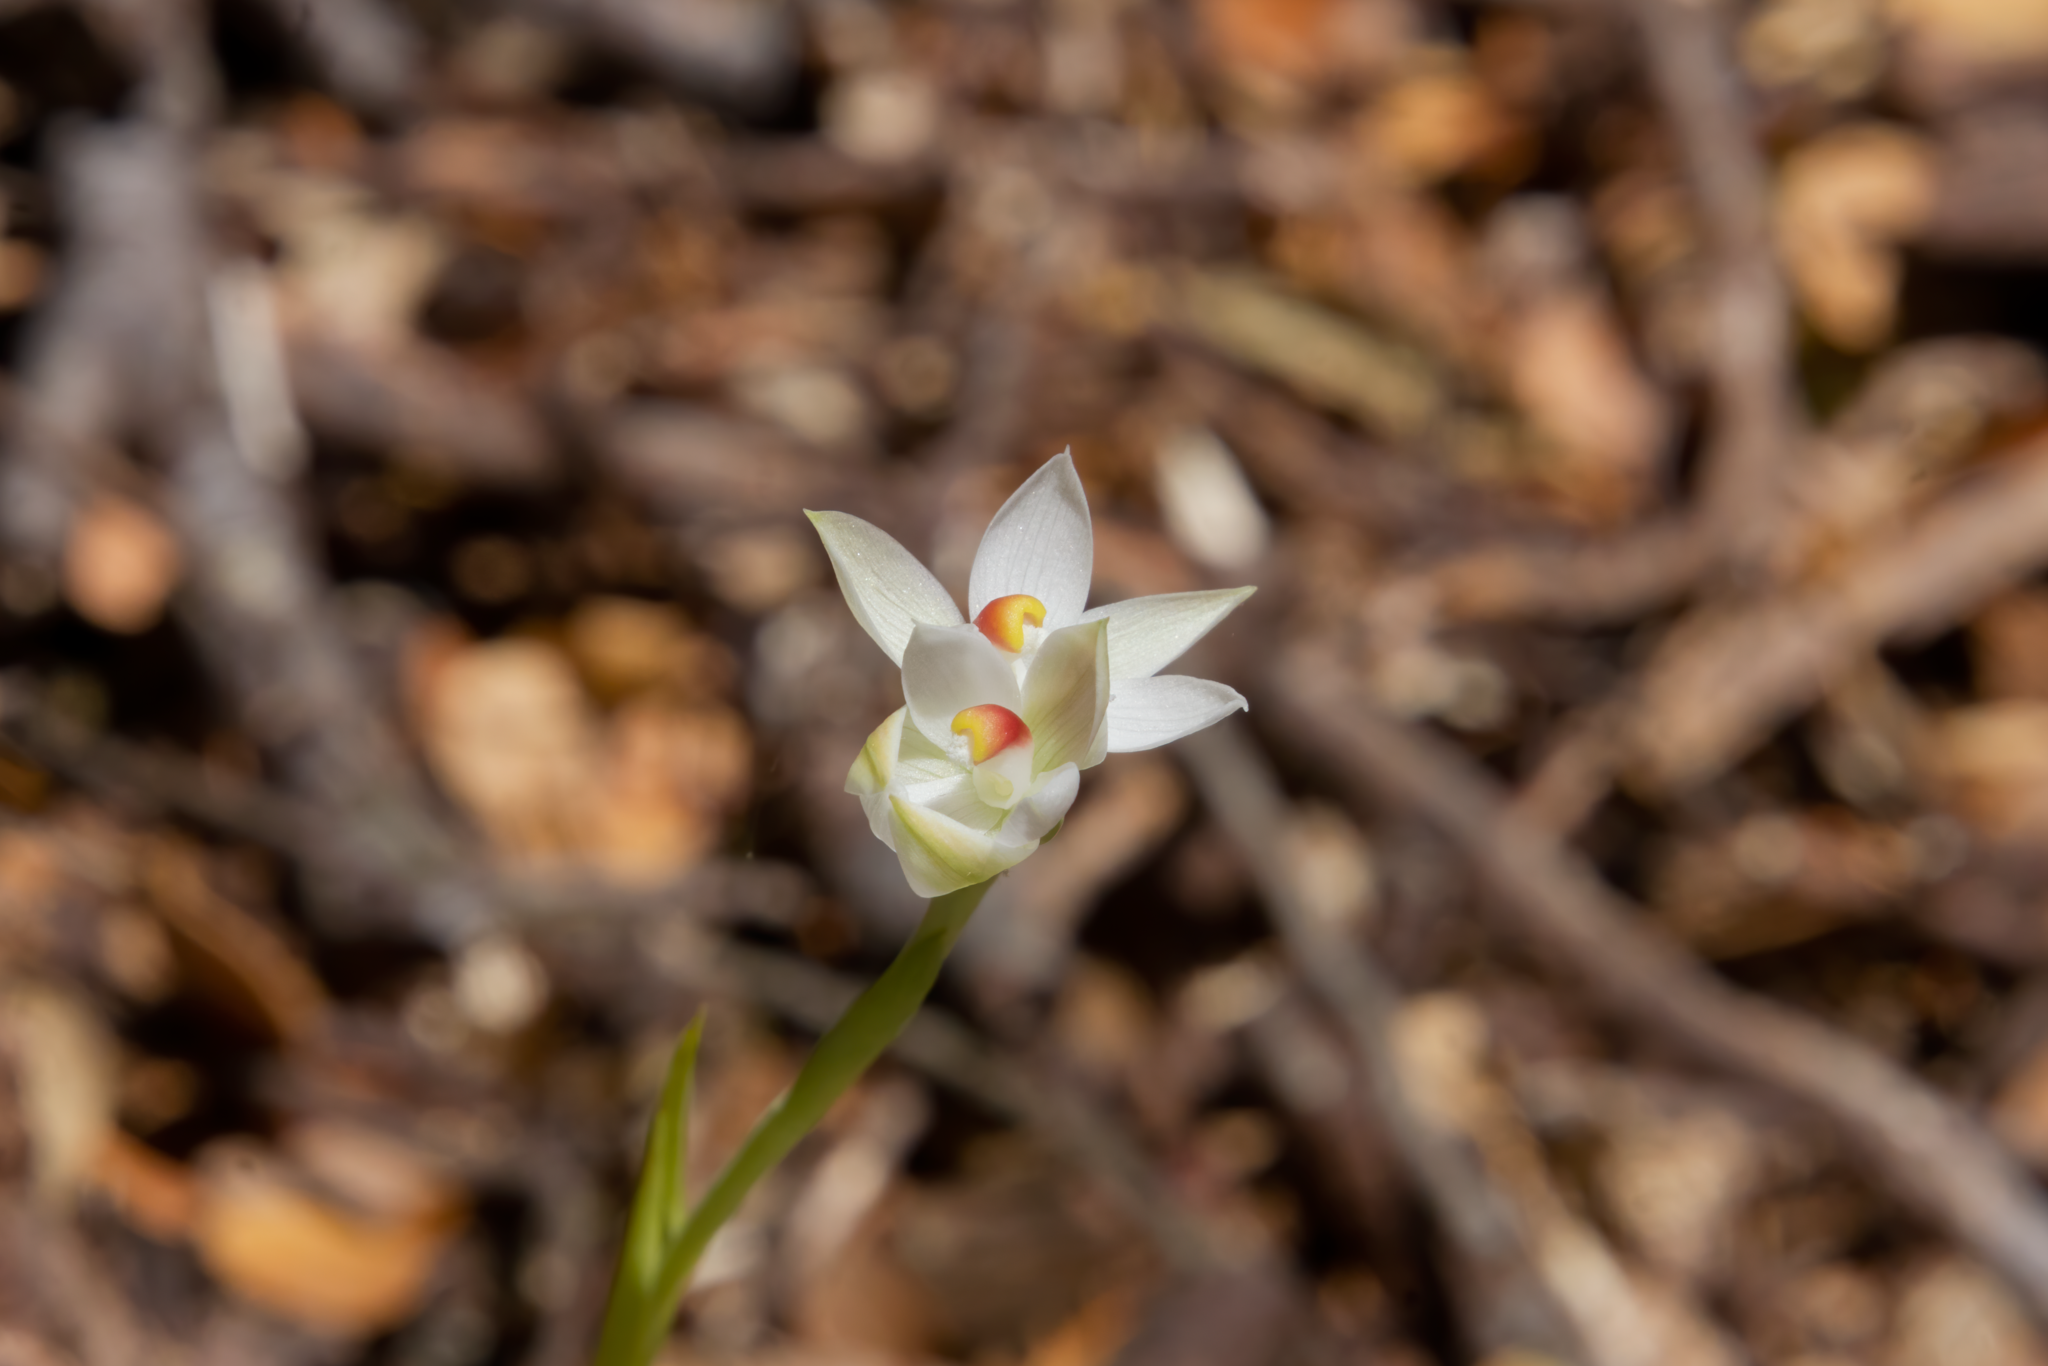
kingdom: Plantae
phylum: Tracheophyta
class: Liliopsida
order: Asparagales
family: Orchidaceae
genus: Thelymitra
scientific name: Thelymitra longifolia
